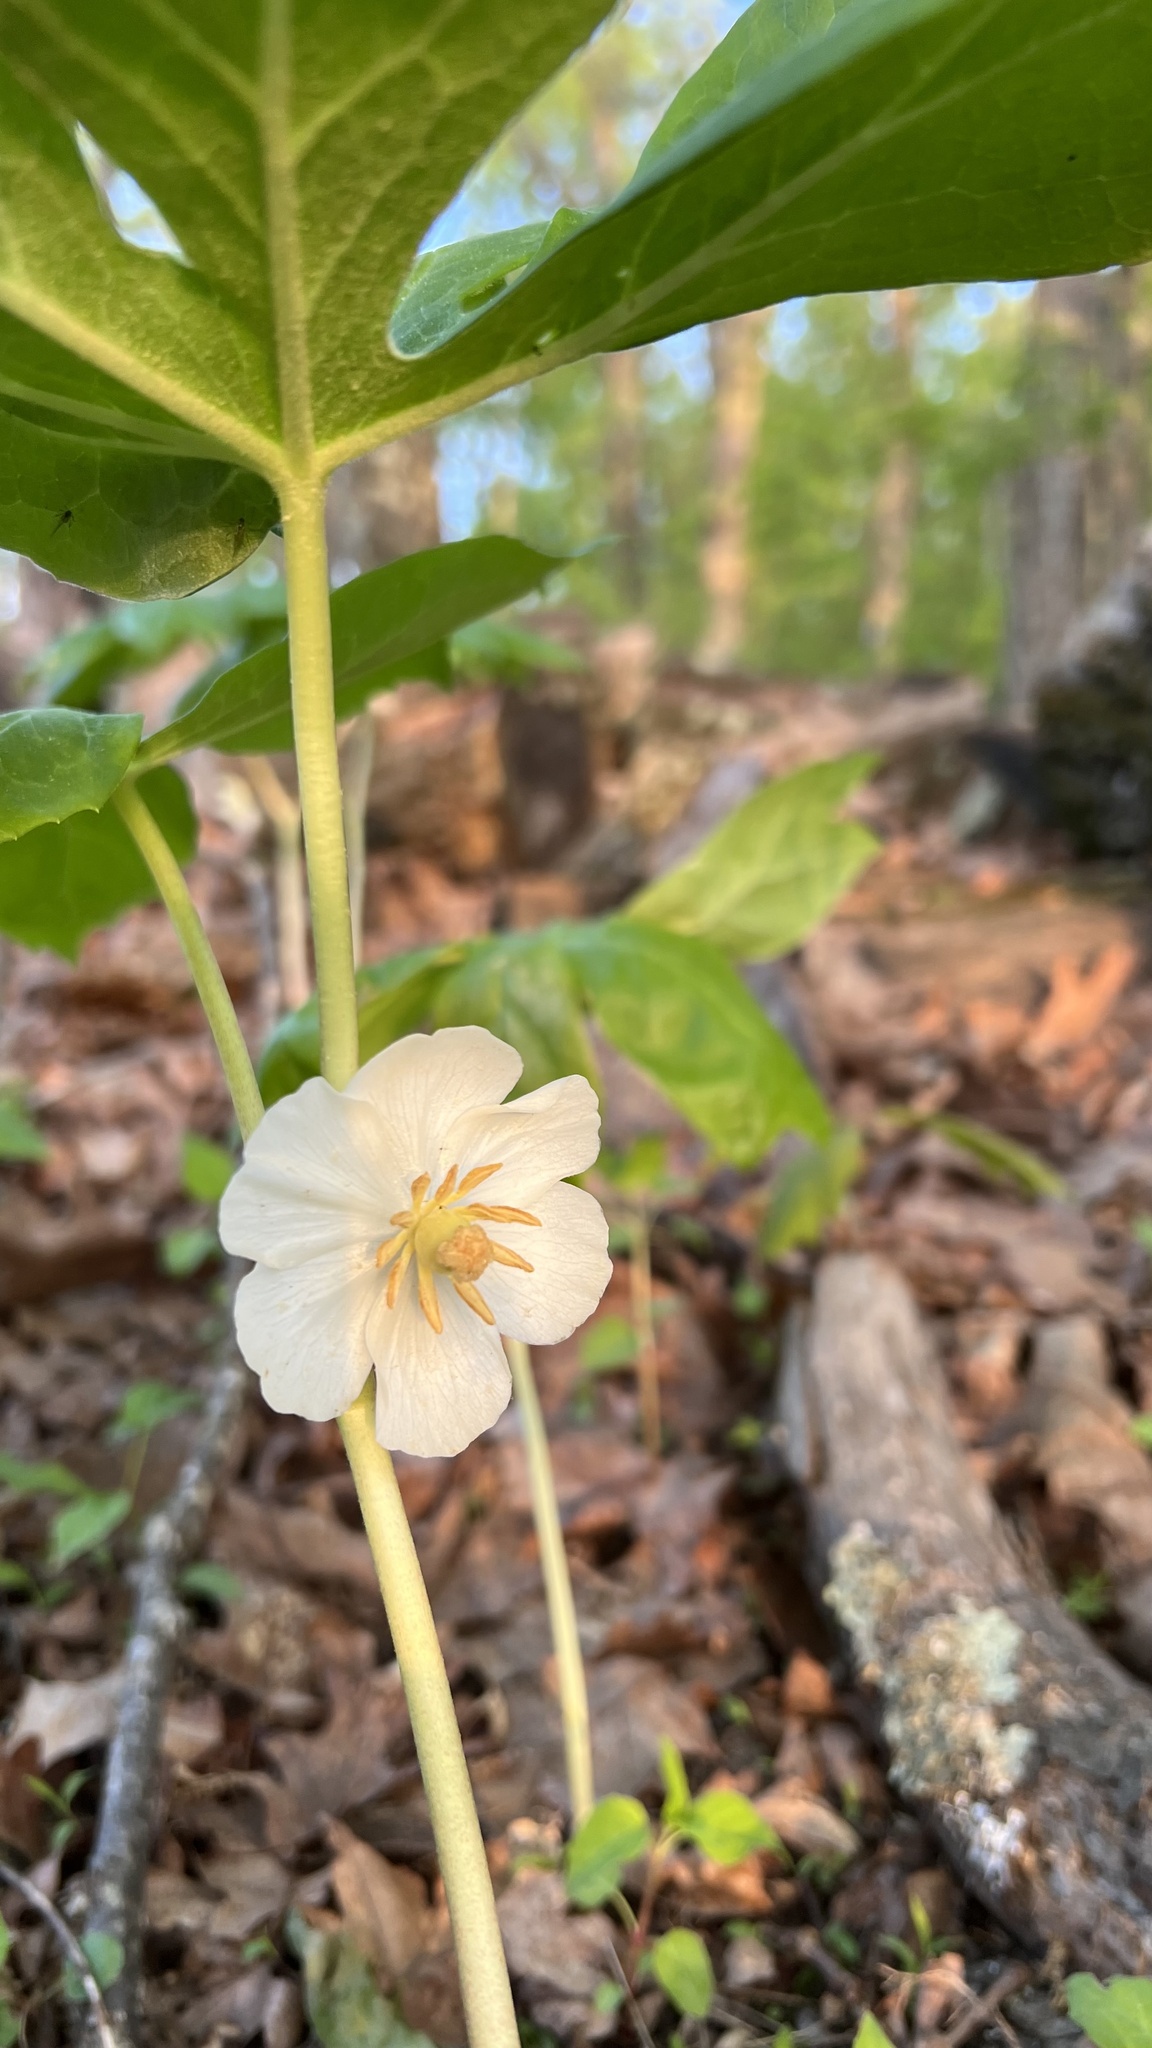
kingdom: Plantae
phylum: Tracheophyta
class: Magnoliopsida
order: Ranunculales
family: Berberidaceae
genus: Podophyllum
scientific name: Podophyllum peltatum
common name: Wild mandrake
